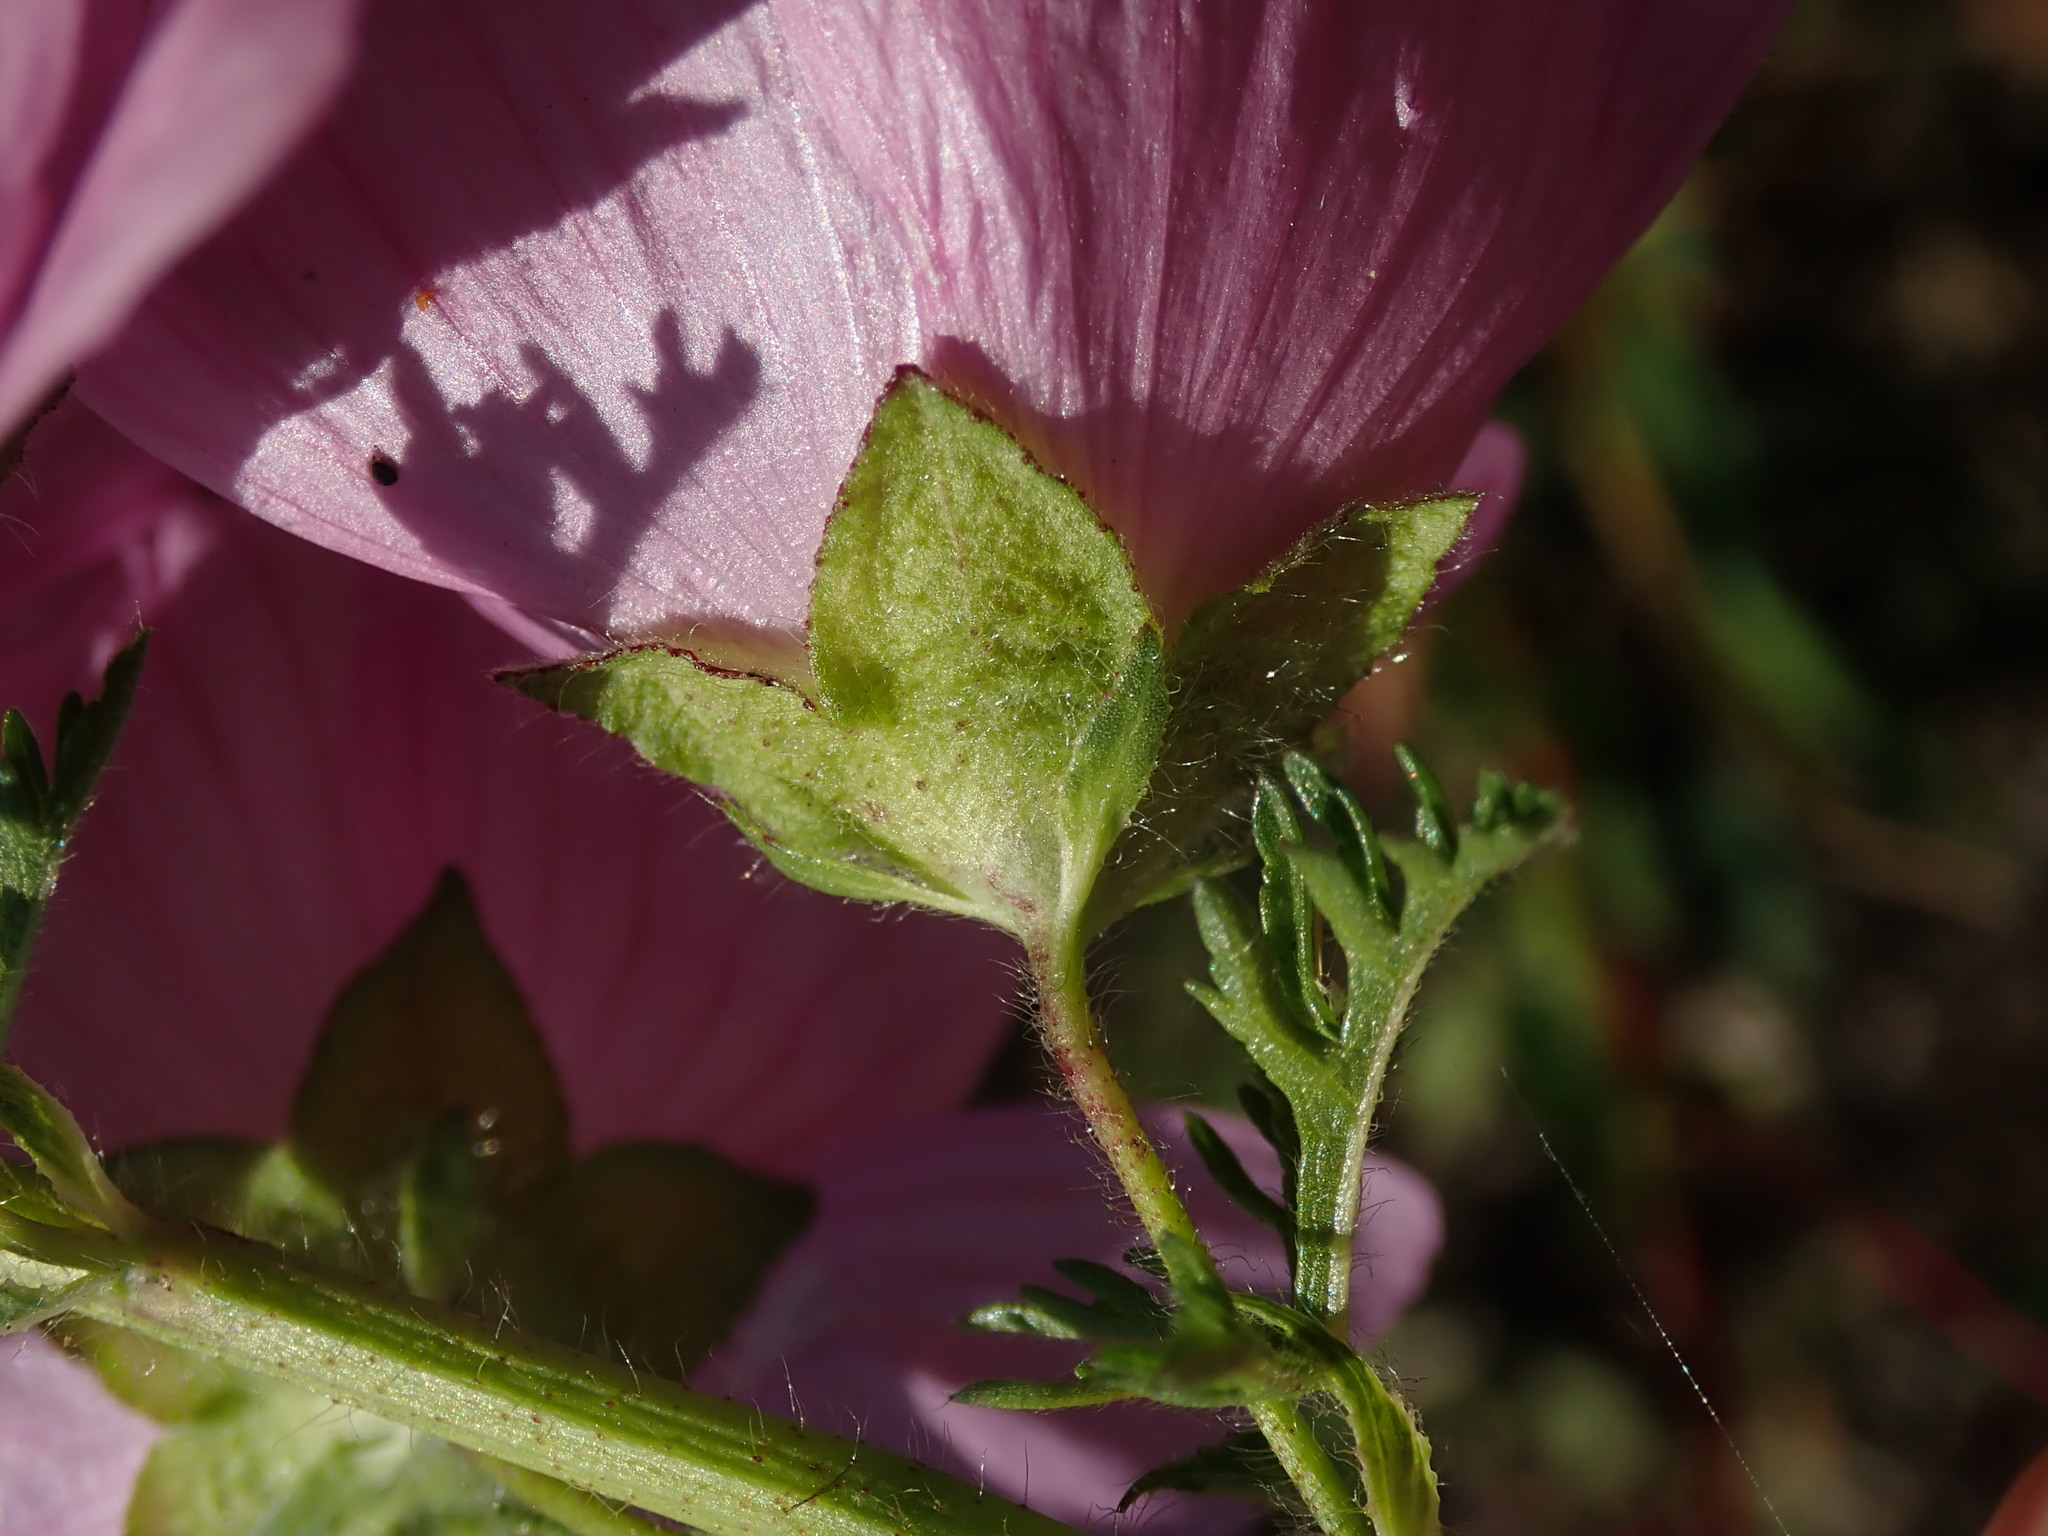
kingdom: Plantae
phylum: Tracheophyta
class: Magnoliopsida
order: Malvales
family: Malvaceae
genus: Malva
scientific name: Malva moschata
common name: Musk mallow
